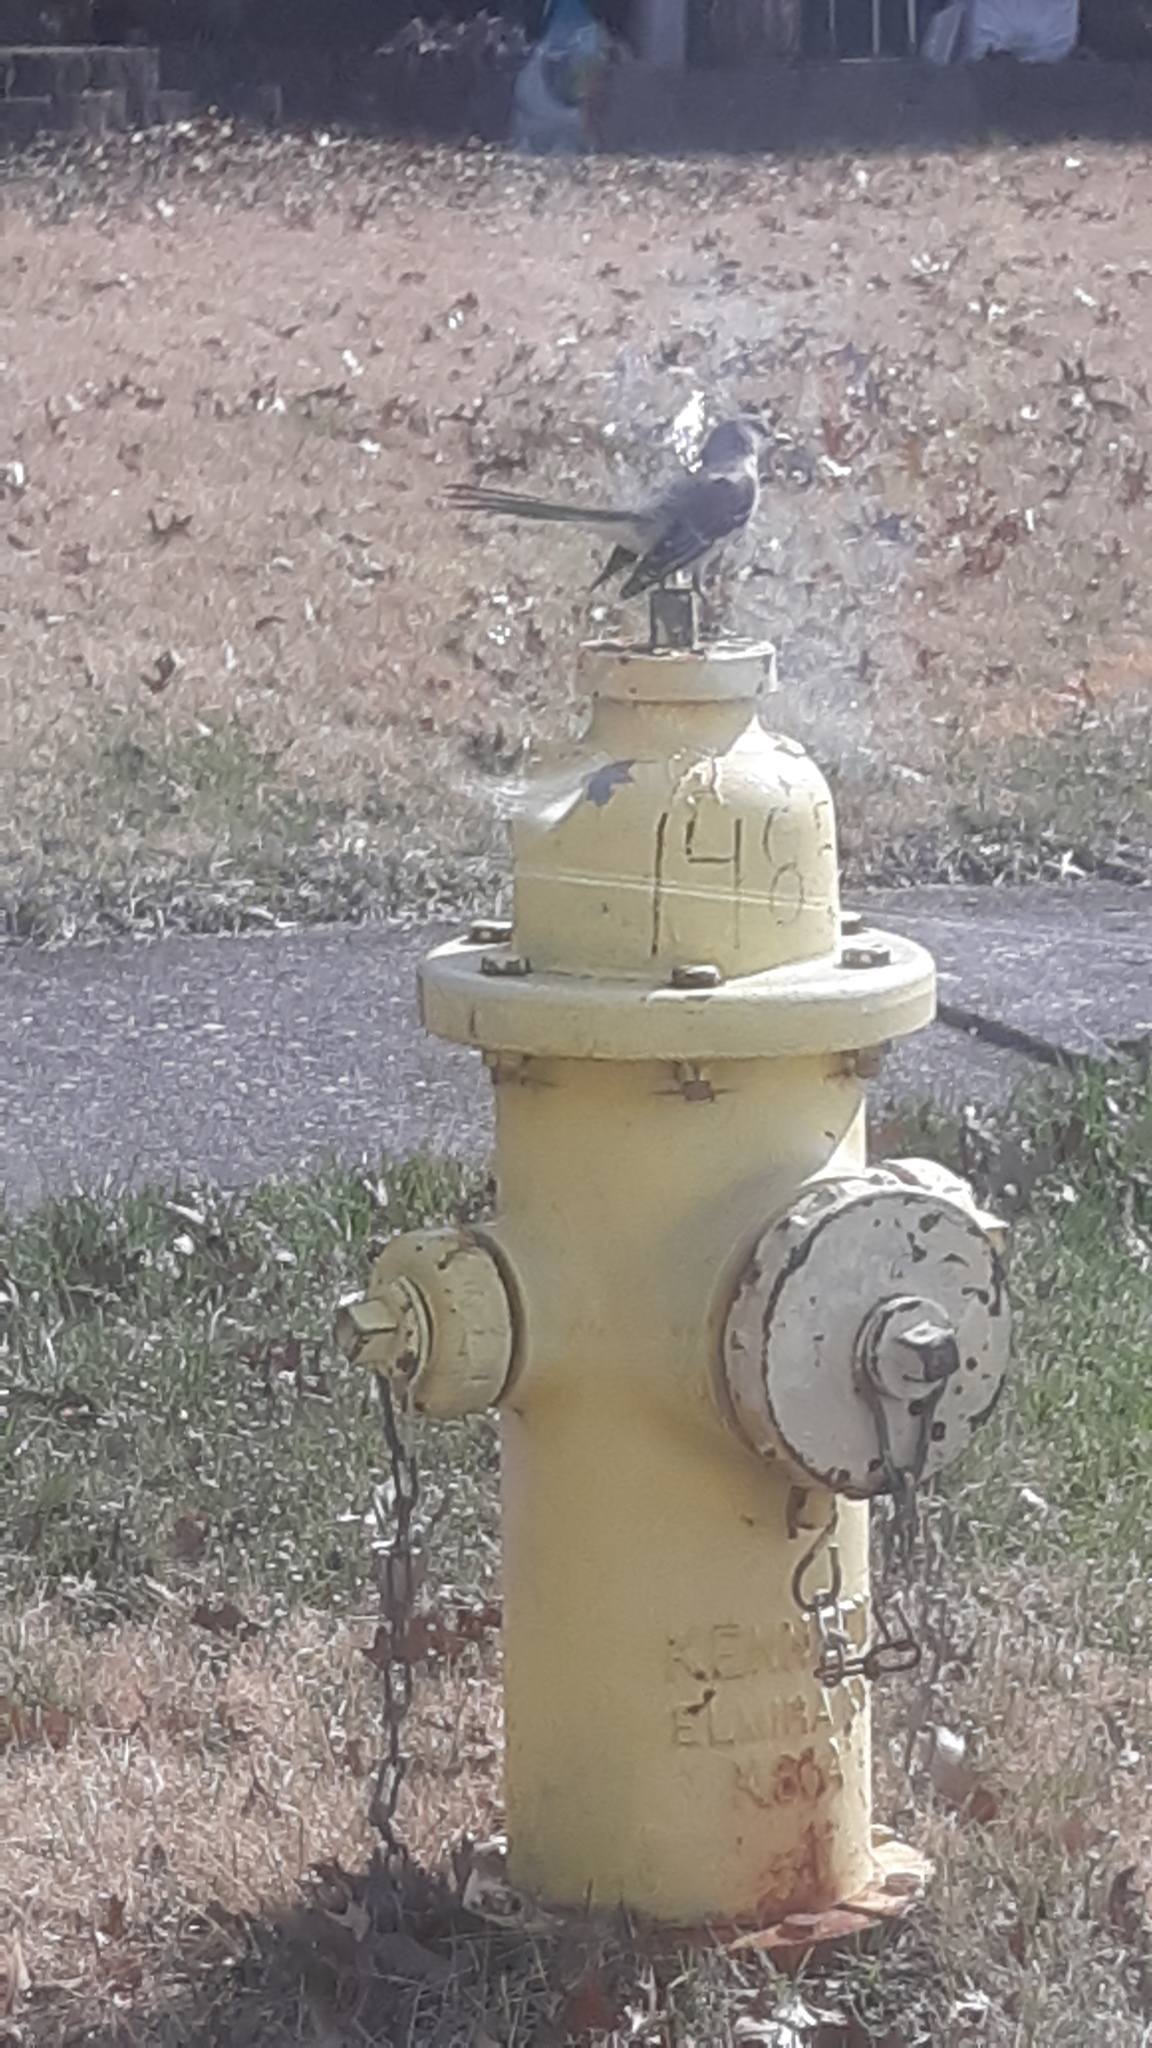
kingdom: Animalia
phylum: Chordata
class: Aves
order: Passeriformes
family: Mimidae
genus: Mimus
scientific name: Mimus polyglottos
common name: Northern mockingbird
